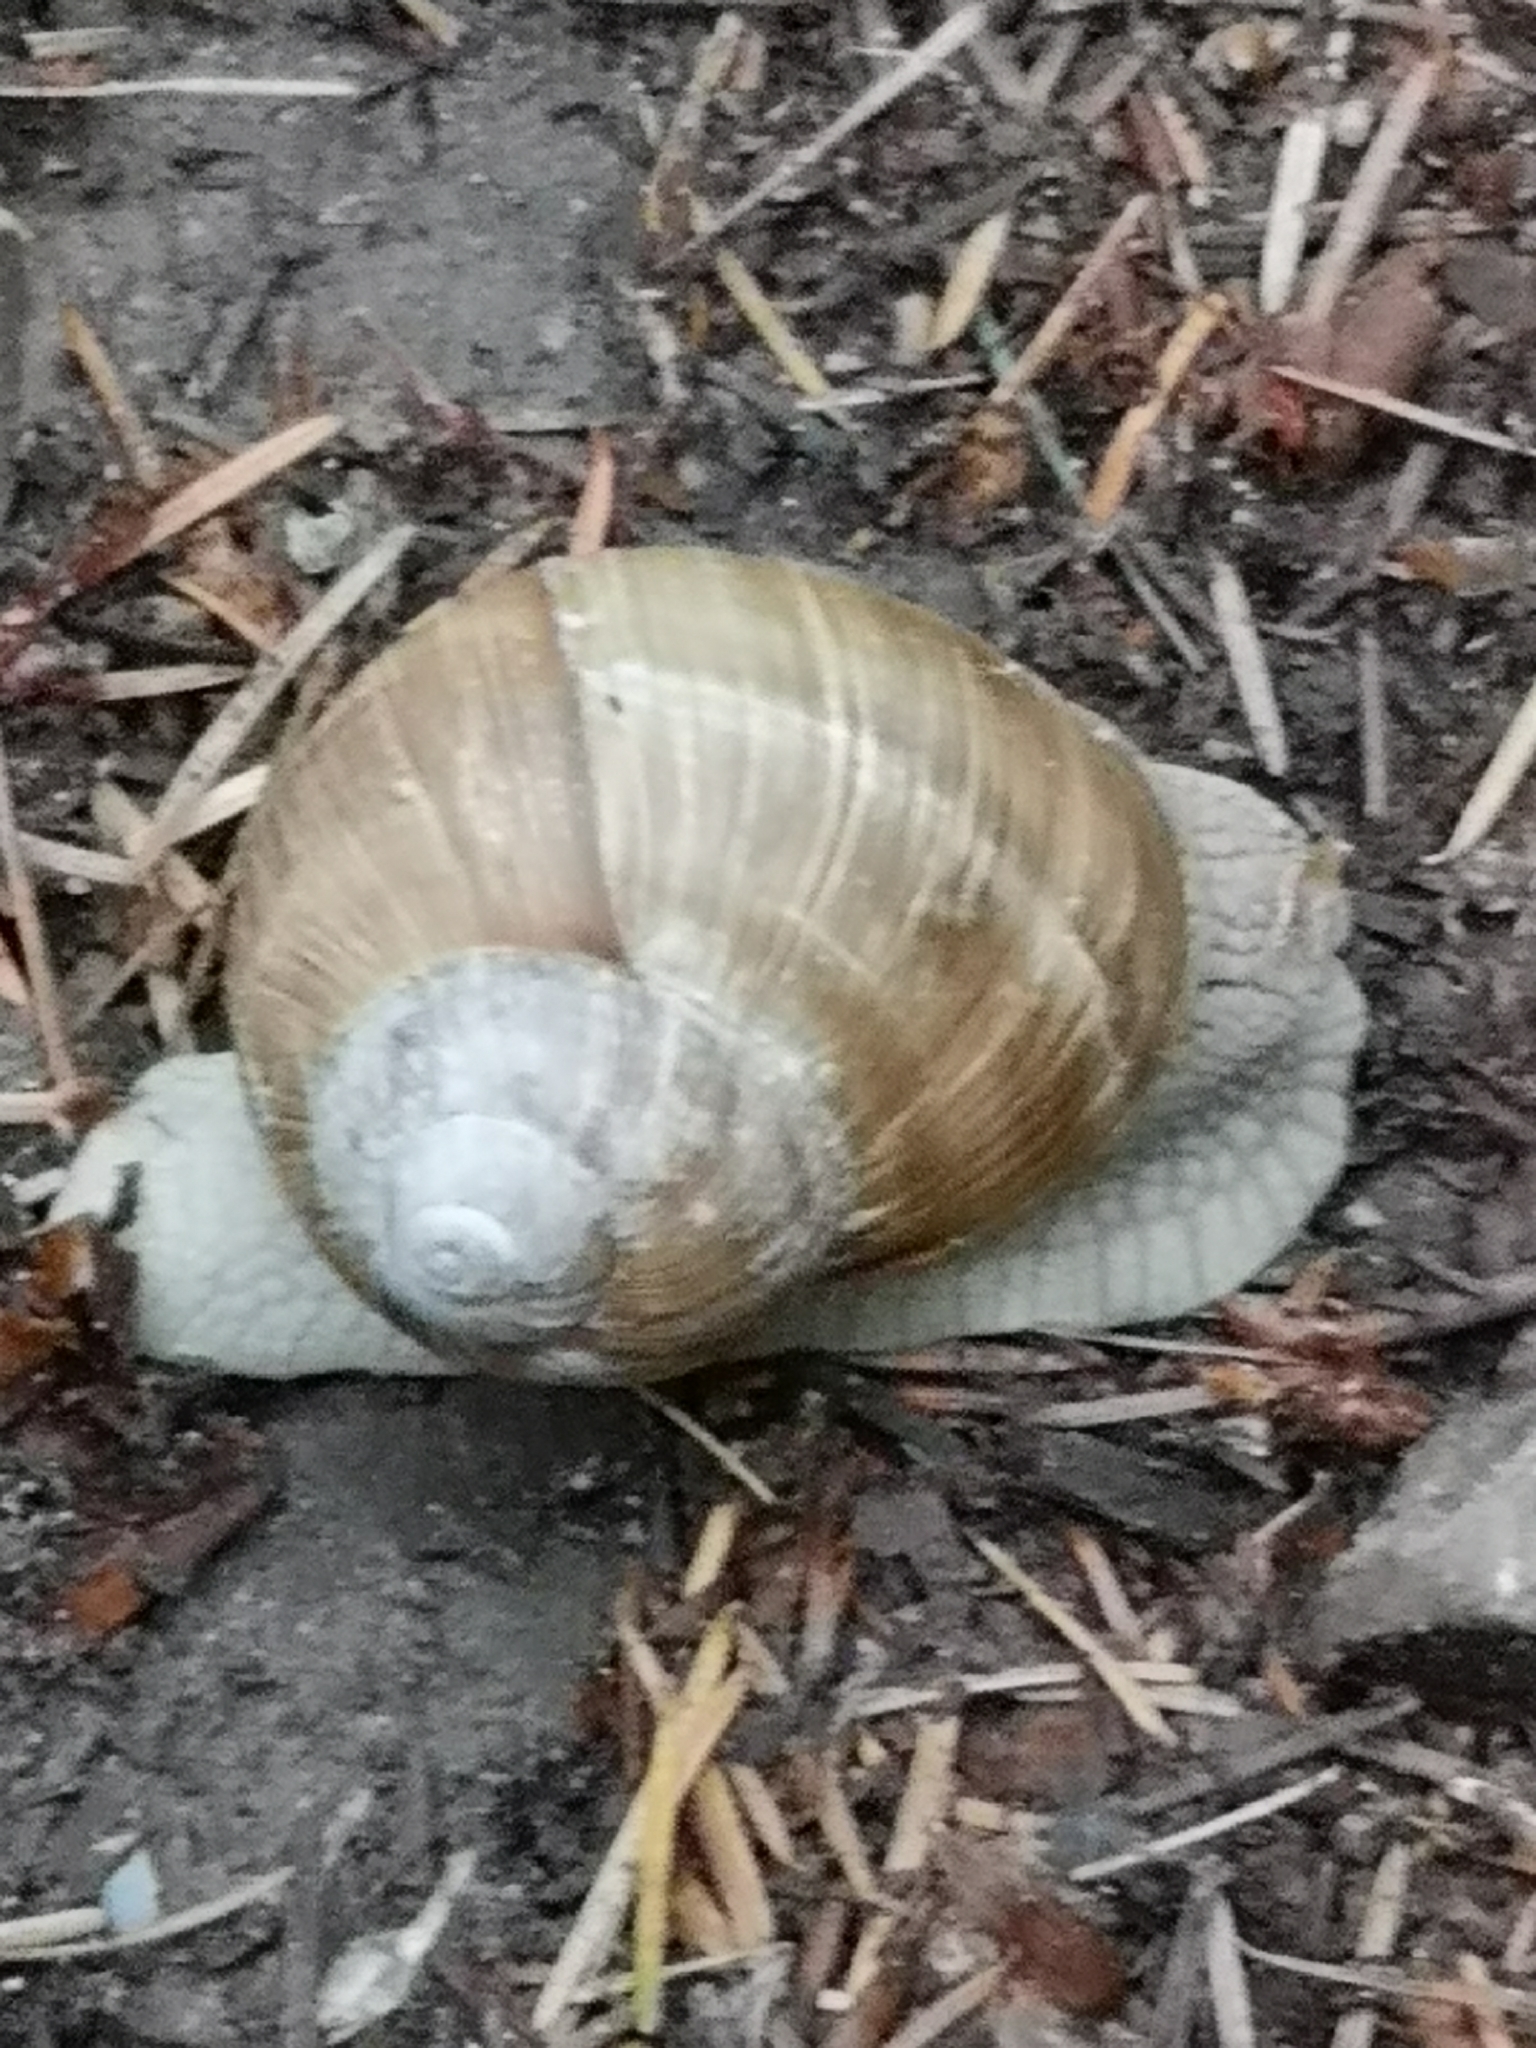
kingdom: Animalia
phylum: Mollusca
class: Gastropoda
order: Stylommatophora
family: Helicidae
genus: Helix
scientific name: Helix pomatia
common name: Roman snail
